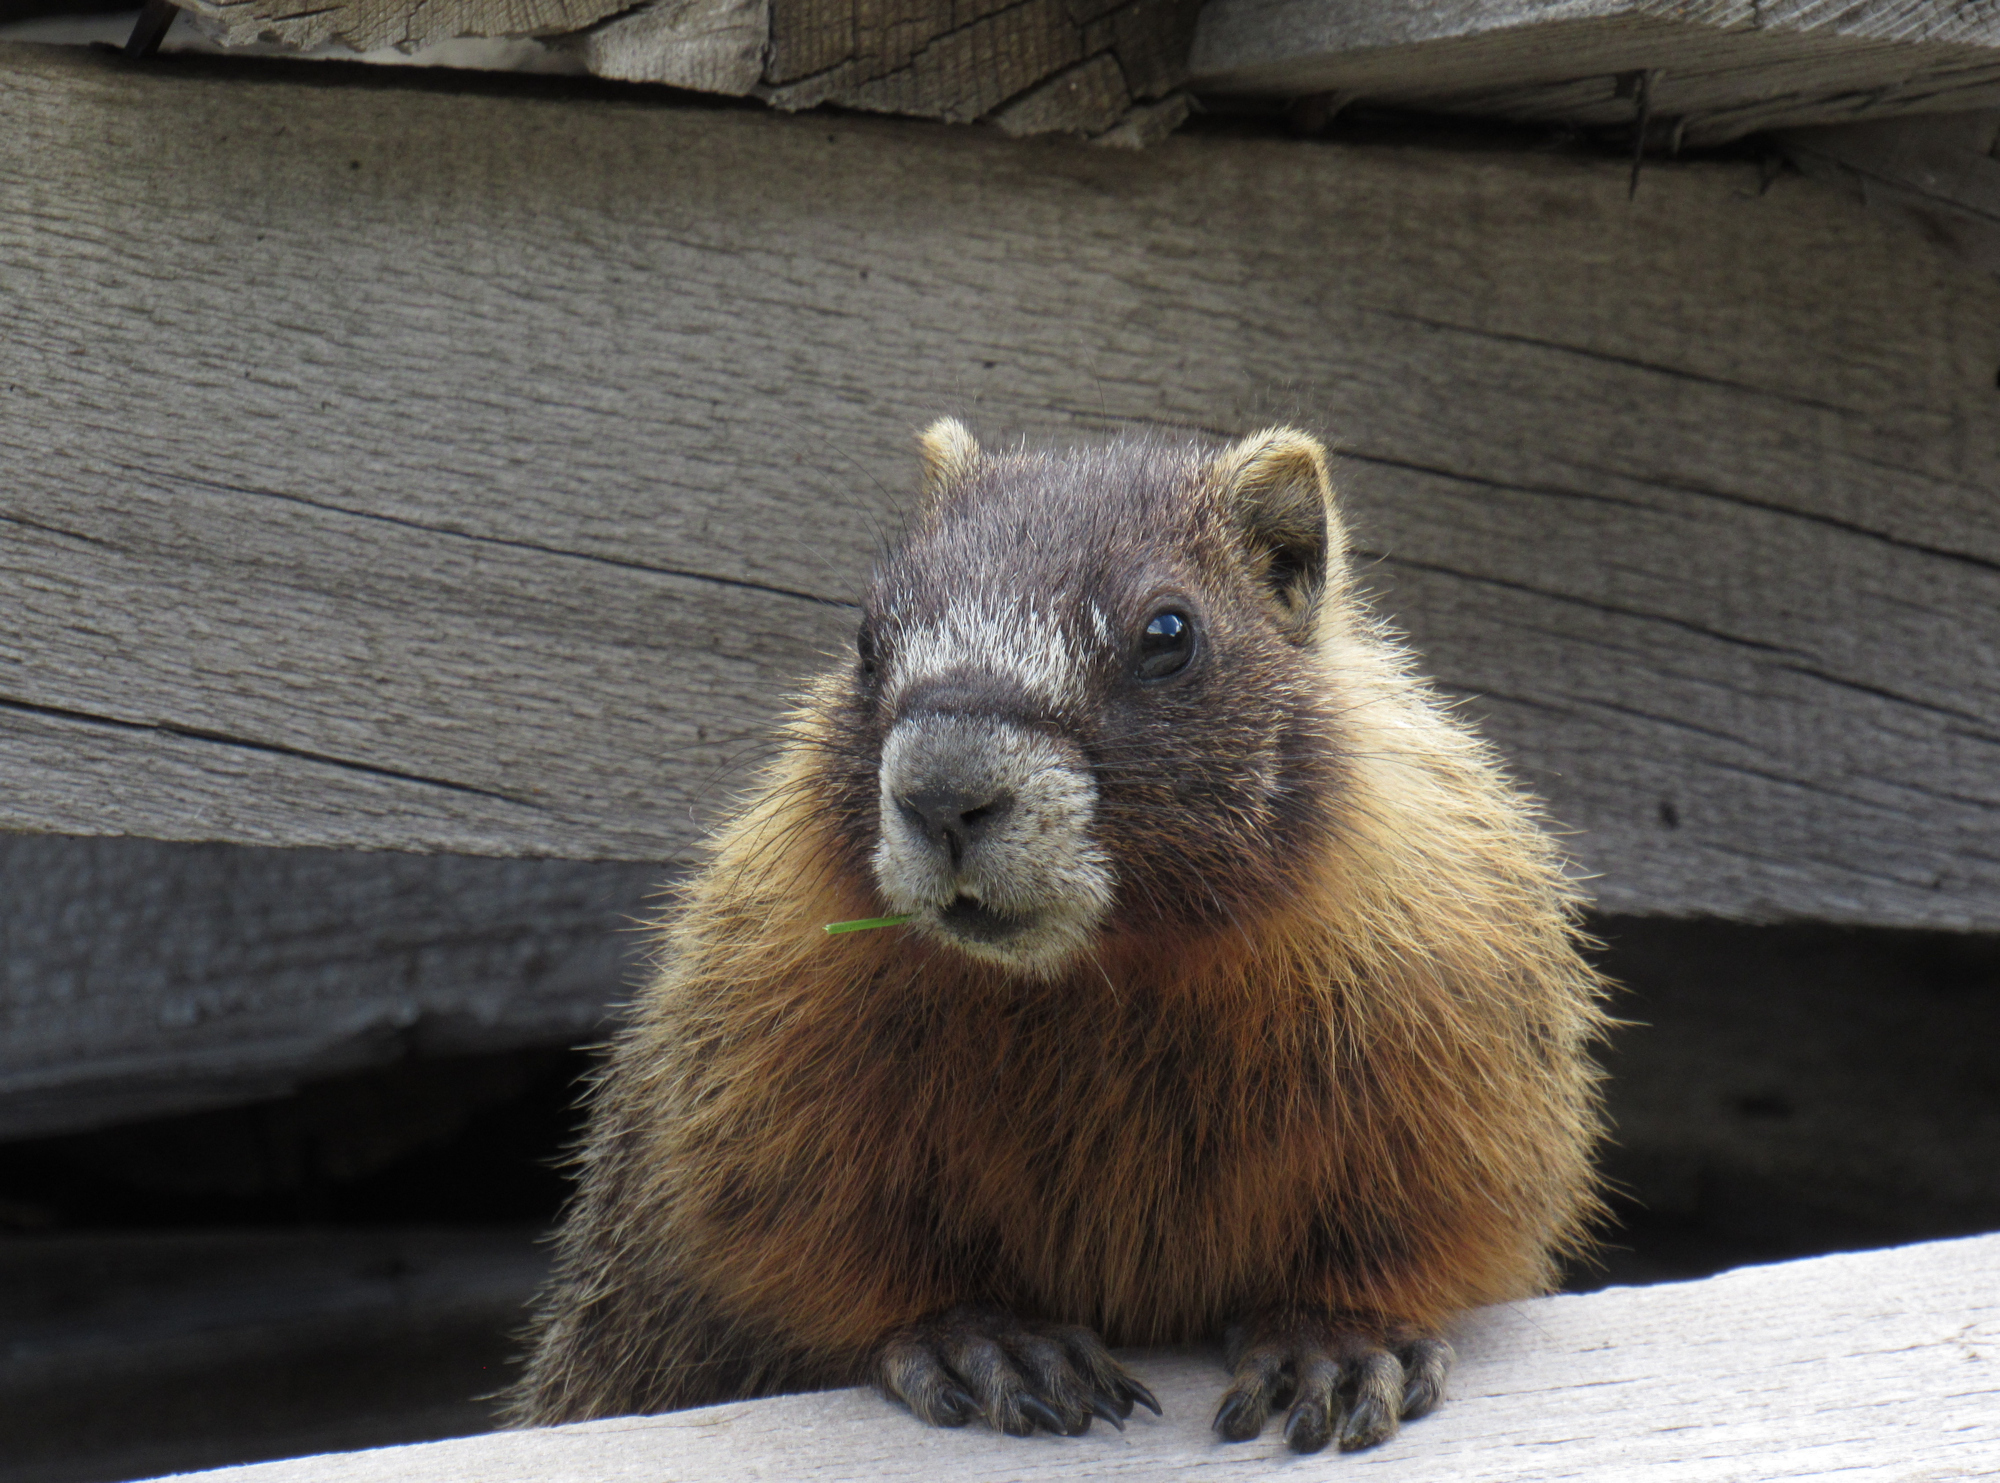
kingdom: Animalia
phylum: Chordata
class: Mammalia
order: Rodentia
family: Sciuridae
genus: Marmota
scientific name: Marmota flaviventris
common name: Yellow-bellied marmot
